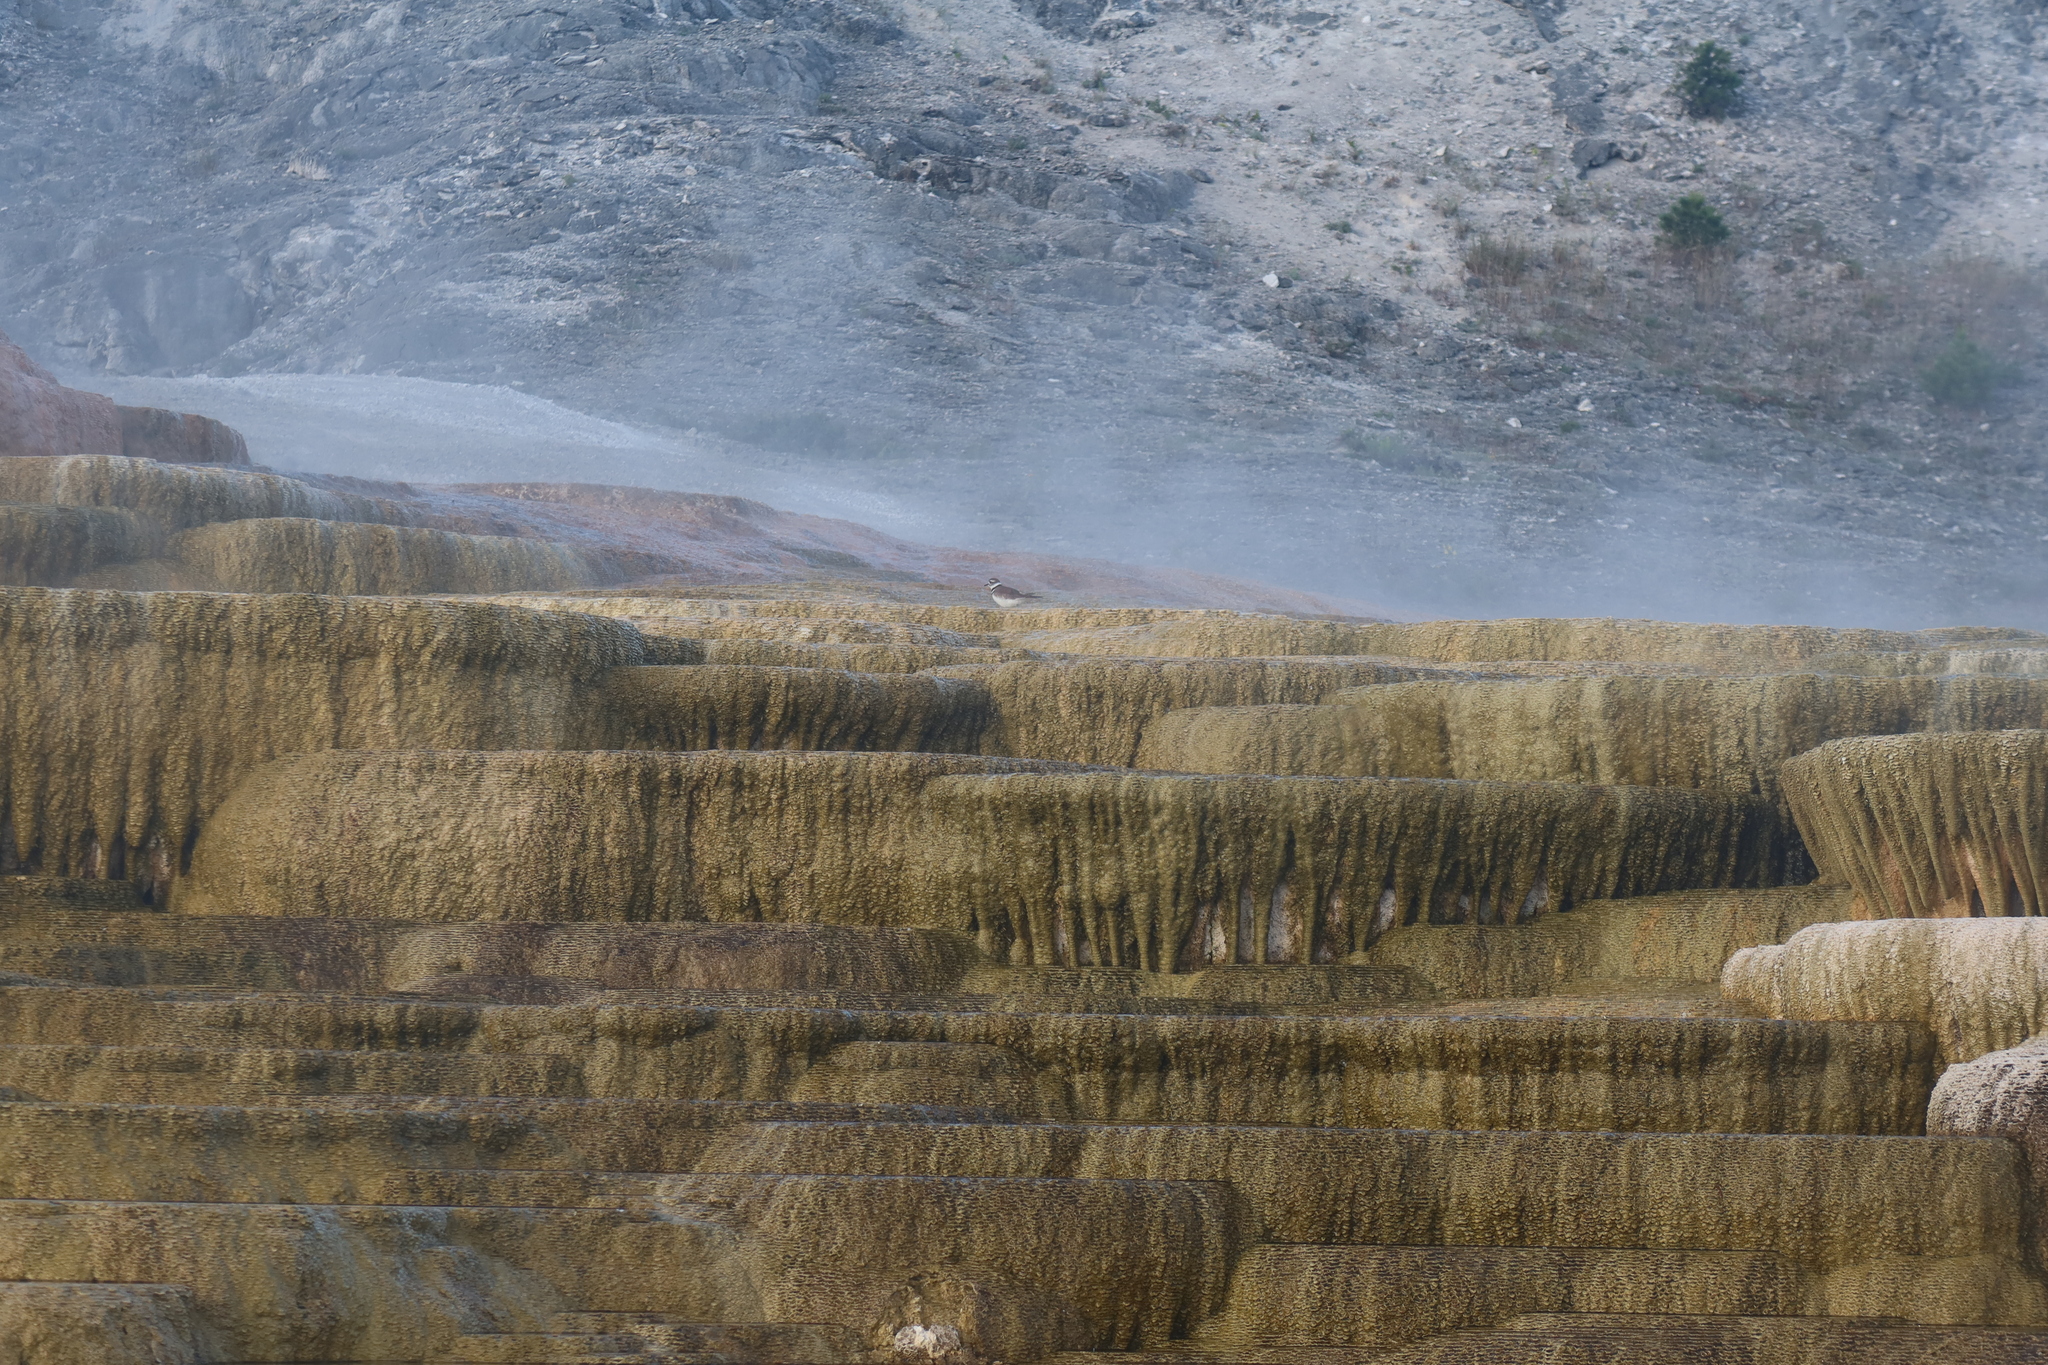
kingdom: Animalia
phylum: Chordata
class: Aves
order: Charadriiformes
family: Charadriidae
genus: Charadrius
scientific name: Charadrius vociferus
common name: Killdeer
